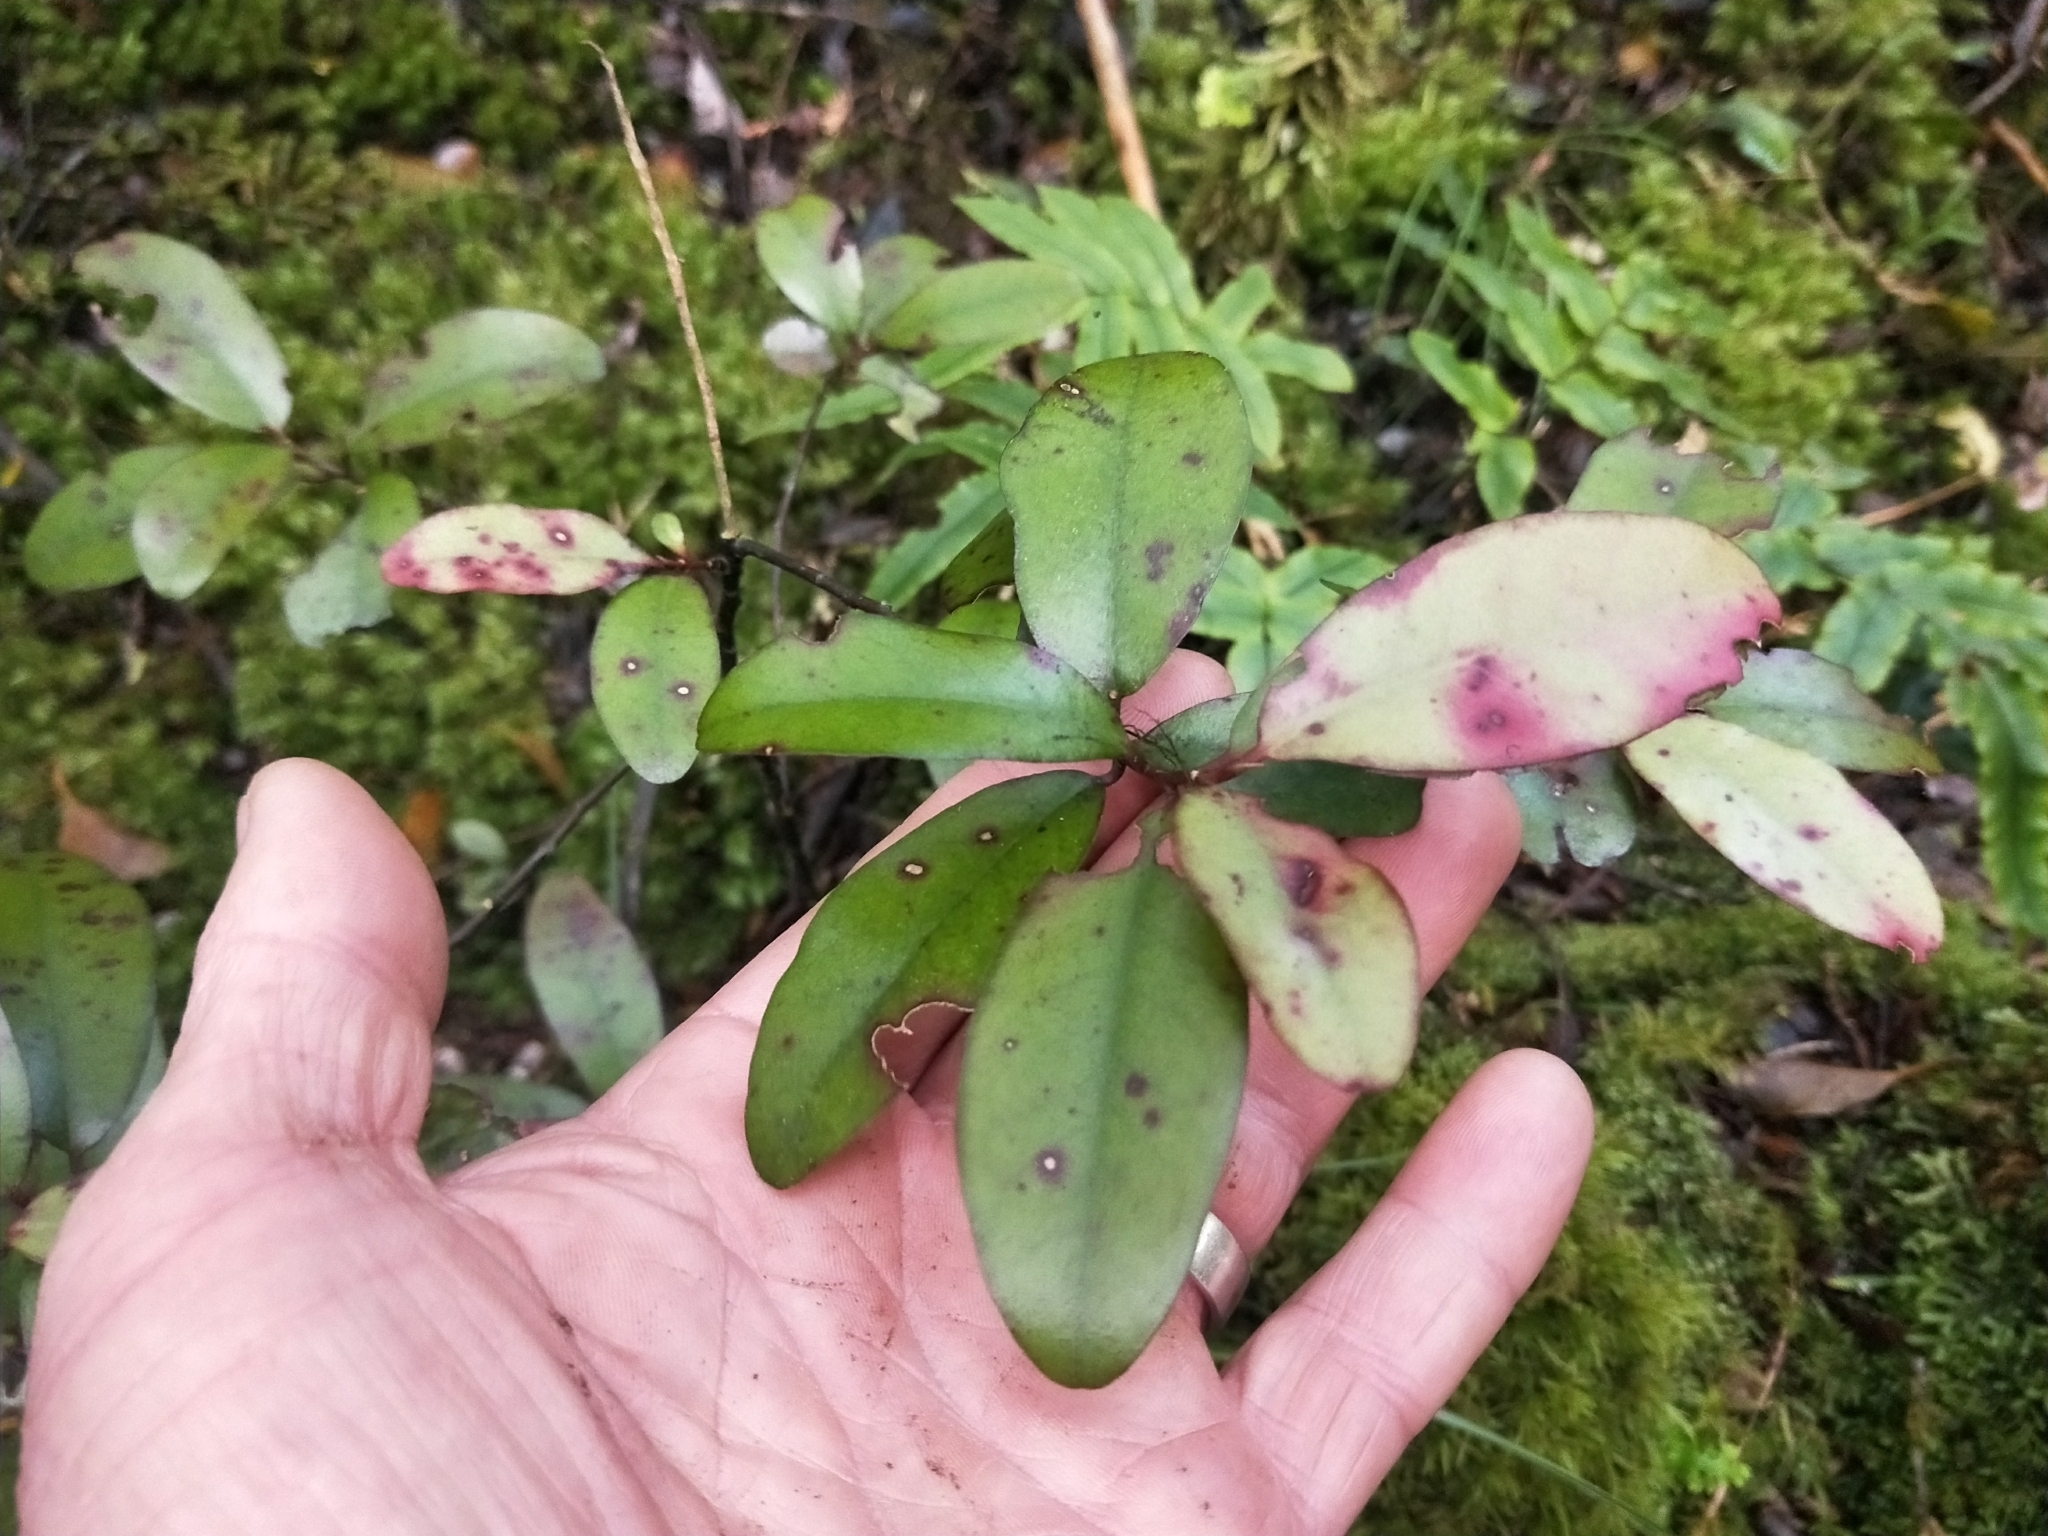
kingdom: Plantae
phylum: Tracheophyta
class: Magnoliopsida
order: Canellales
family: Winteraceae
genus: Pseudowintera
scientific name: Pseudowintera colorata
